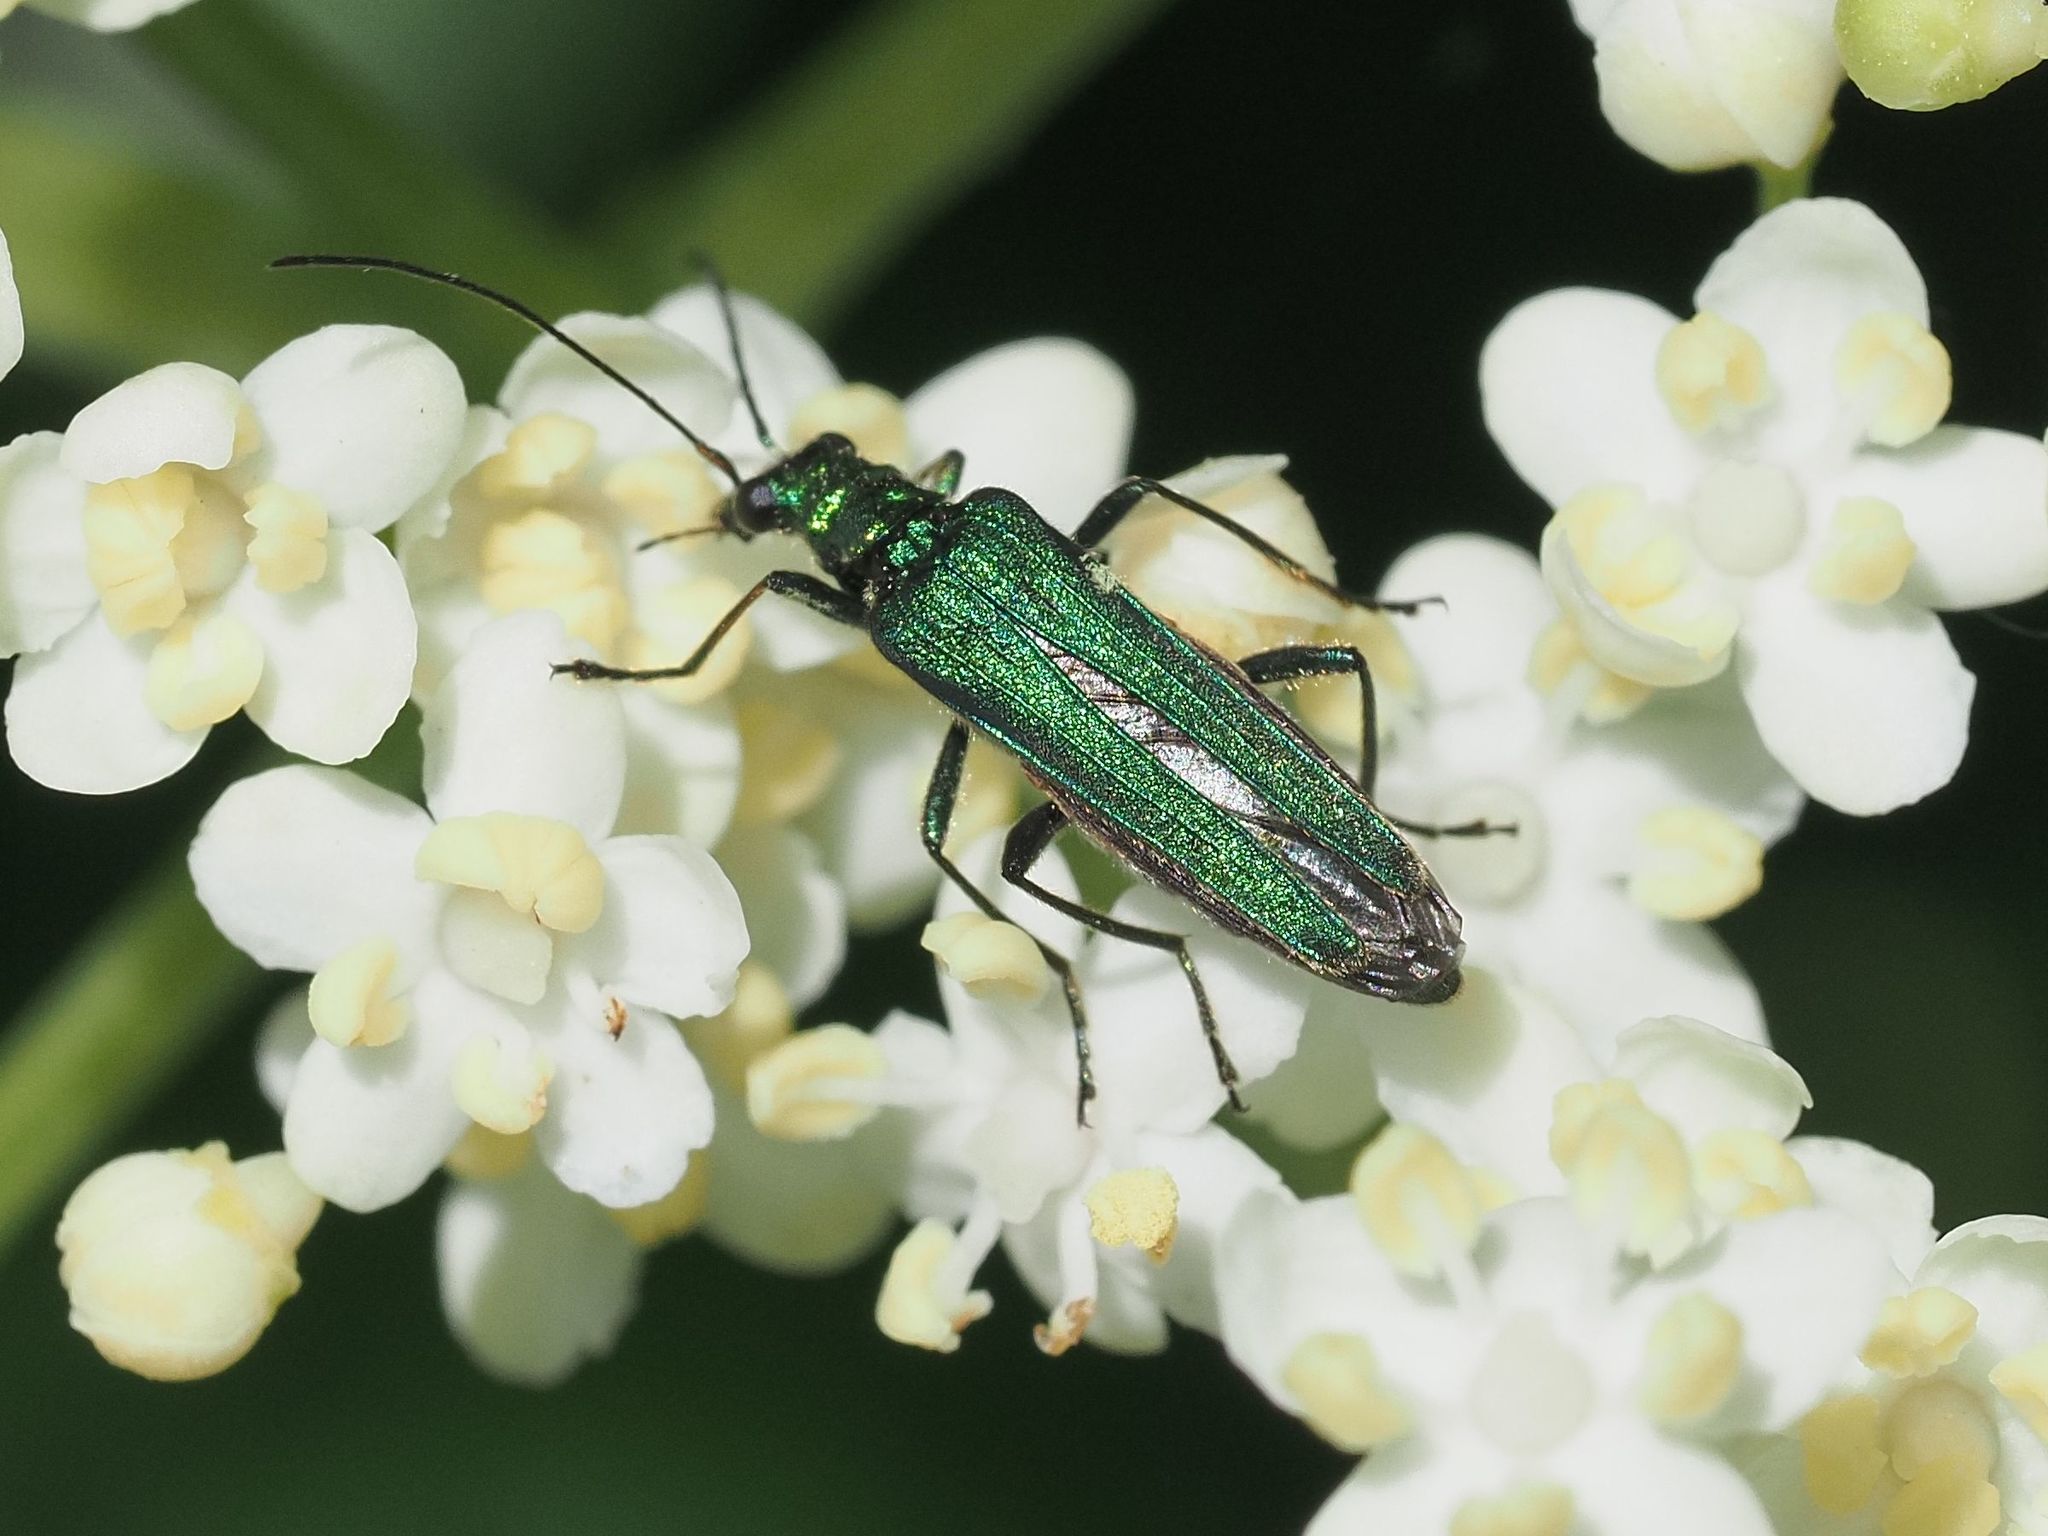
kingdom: Animalia
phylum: Arthropoda
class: Insecta
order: Coleoptera
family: Oedemeridae
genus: Oedemera
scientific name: Oedemera nobilis
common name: Swollen-thighed beetle
